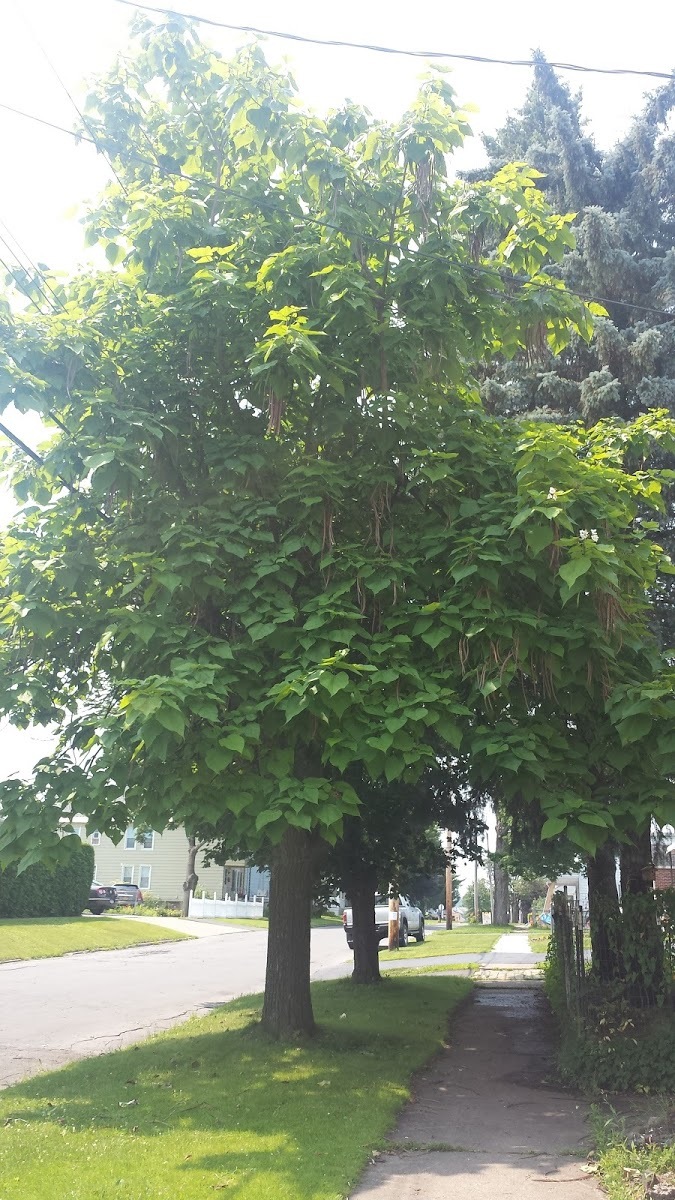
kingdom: Plantae
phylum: Tracheophyta
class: Magnoliopsida
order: Lamiales
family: Bignoniaceae
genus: Catalpa
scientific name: Catalpa speciosa
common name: Northern catalpa
